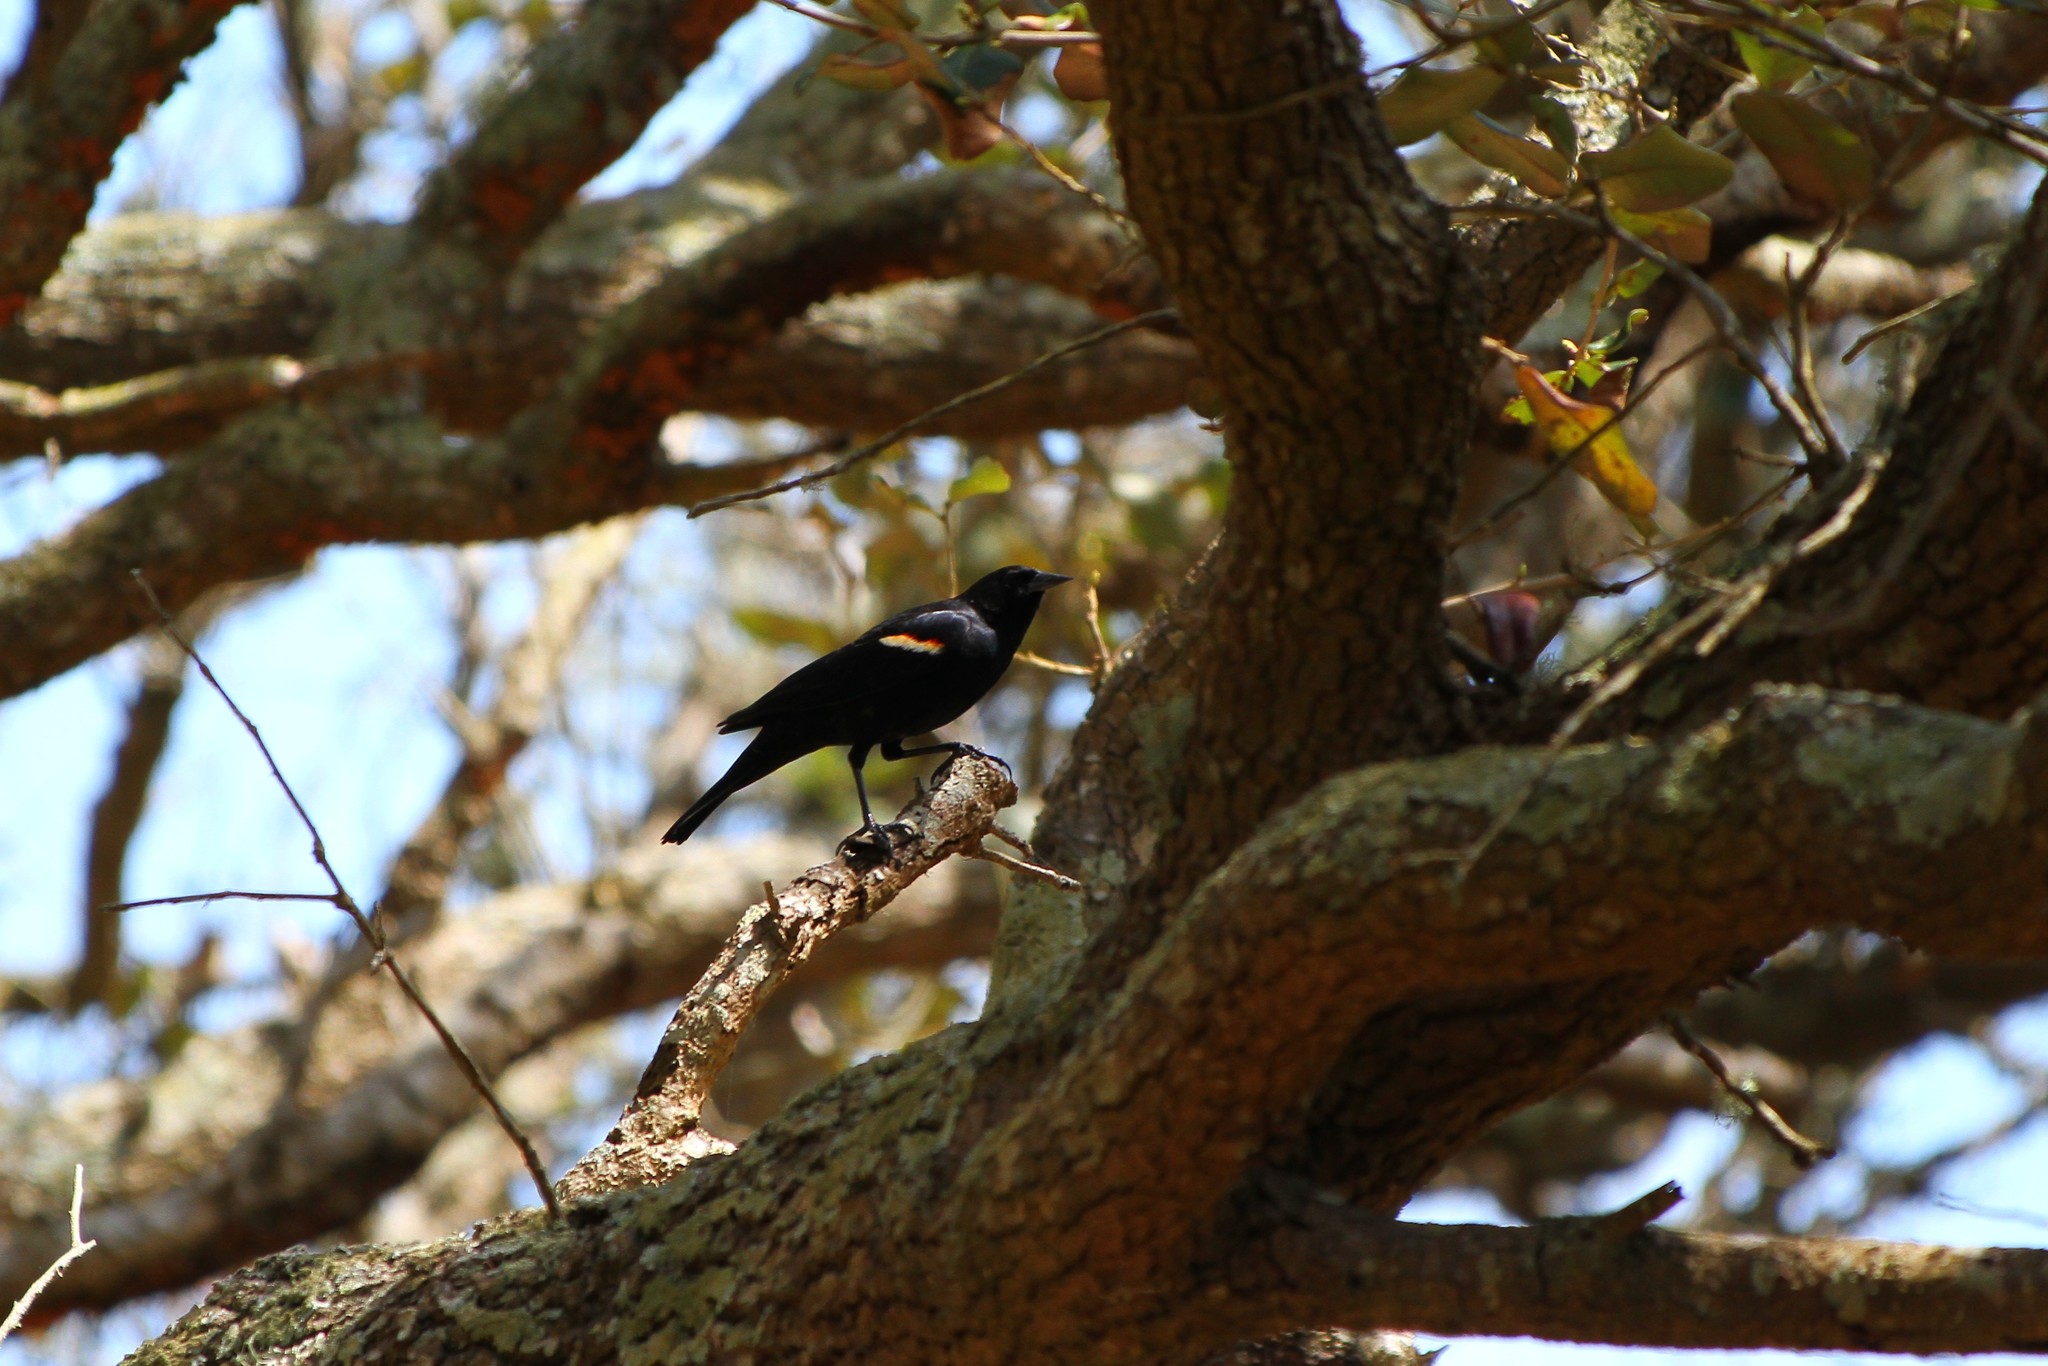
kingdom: Animalia
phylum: Chordata
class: Aves
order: Passeriformes
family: Icteridae
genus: Agelaius
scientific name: Agelaius phoeniceus
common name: Red-winged blackbird
